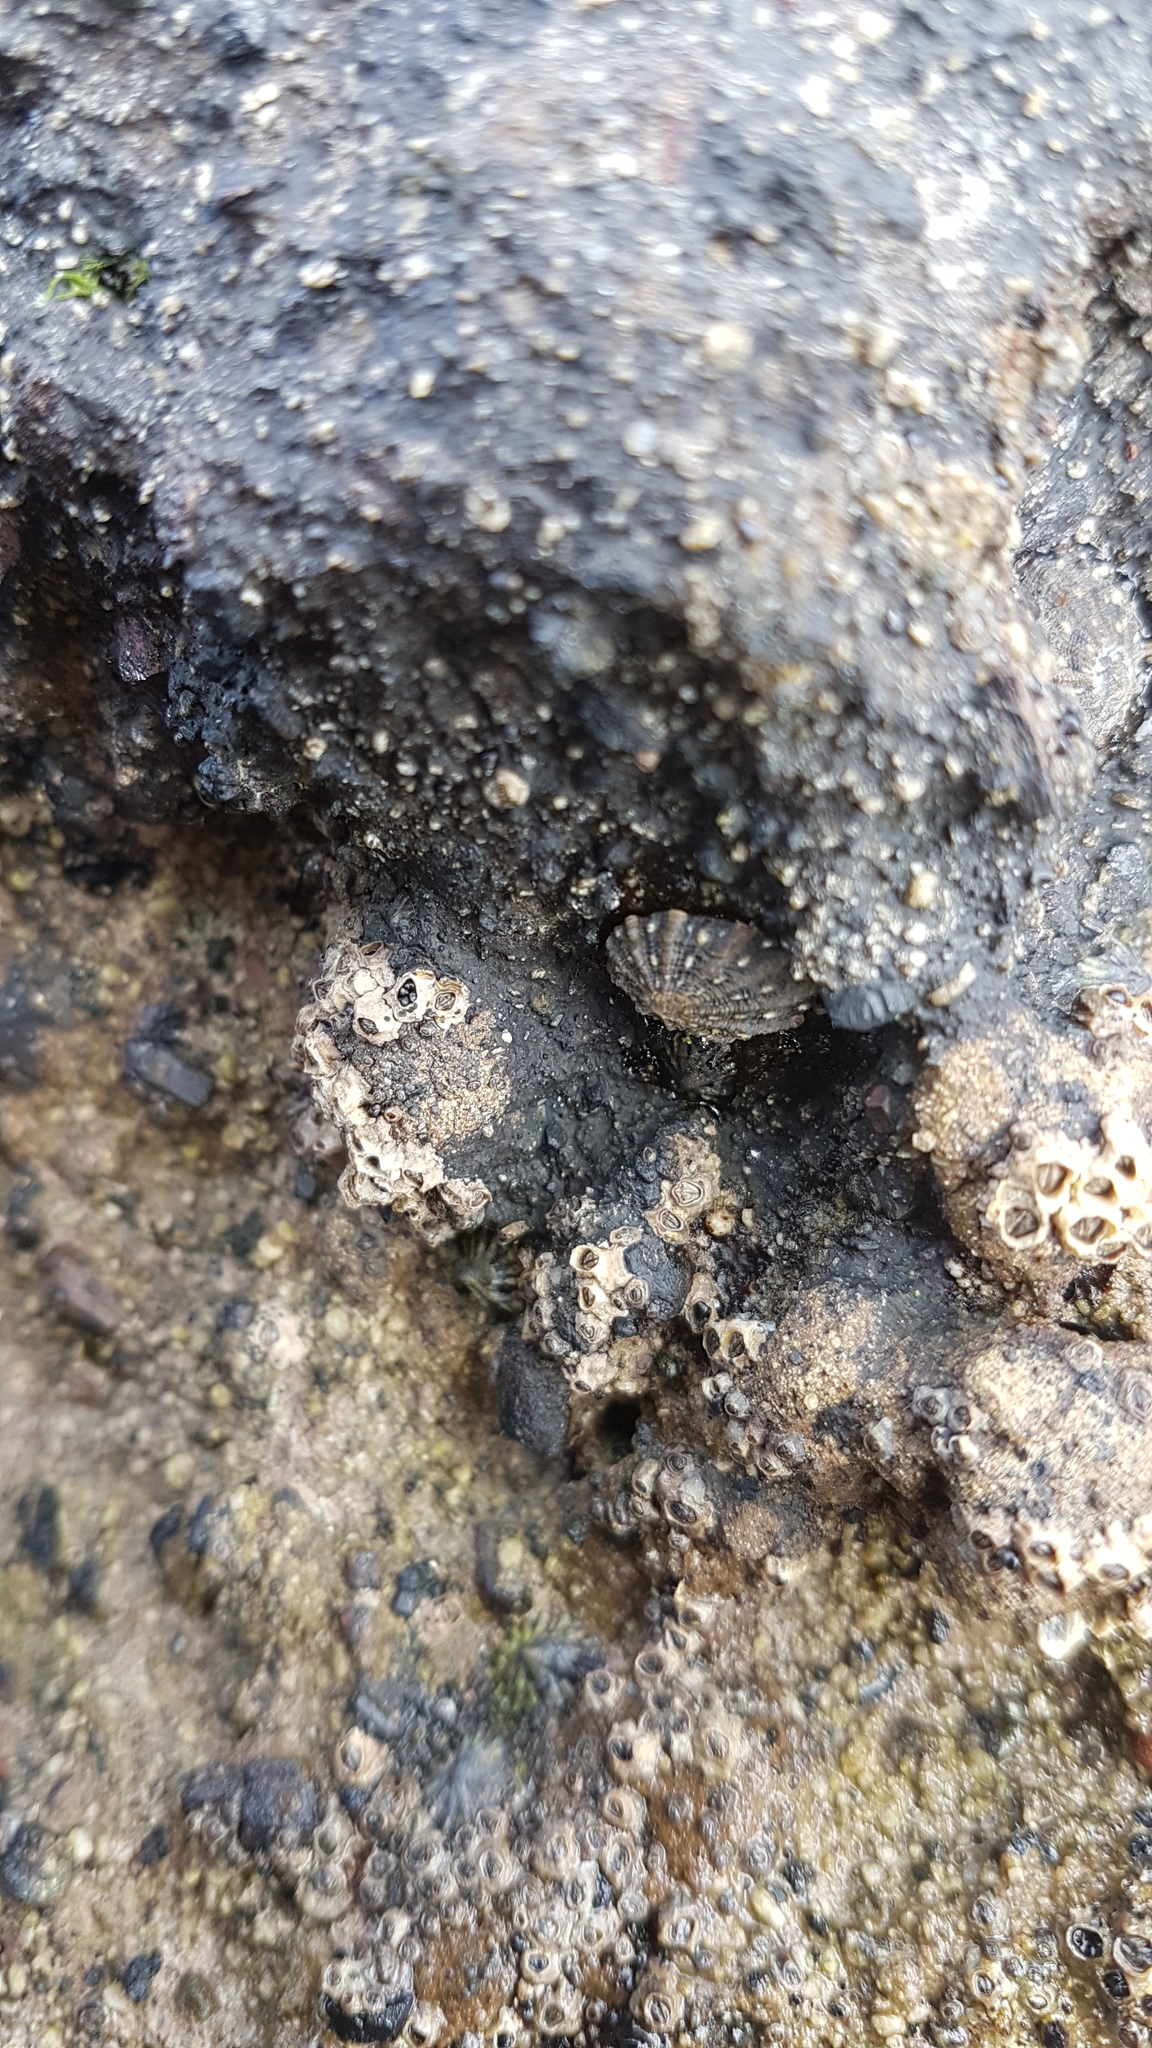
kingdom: Animalia
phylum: Mollusca
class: Gastropoda
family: Nacellidae
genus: Cellana
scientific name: Cellana ornata
